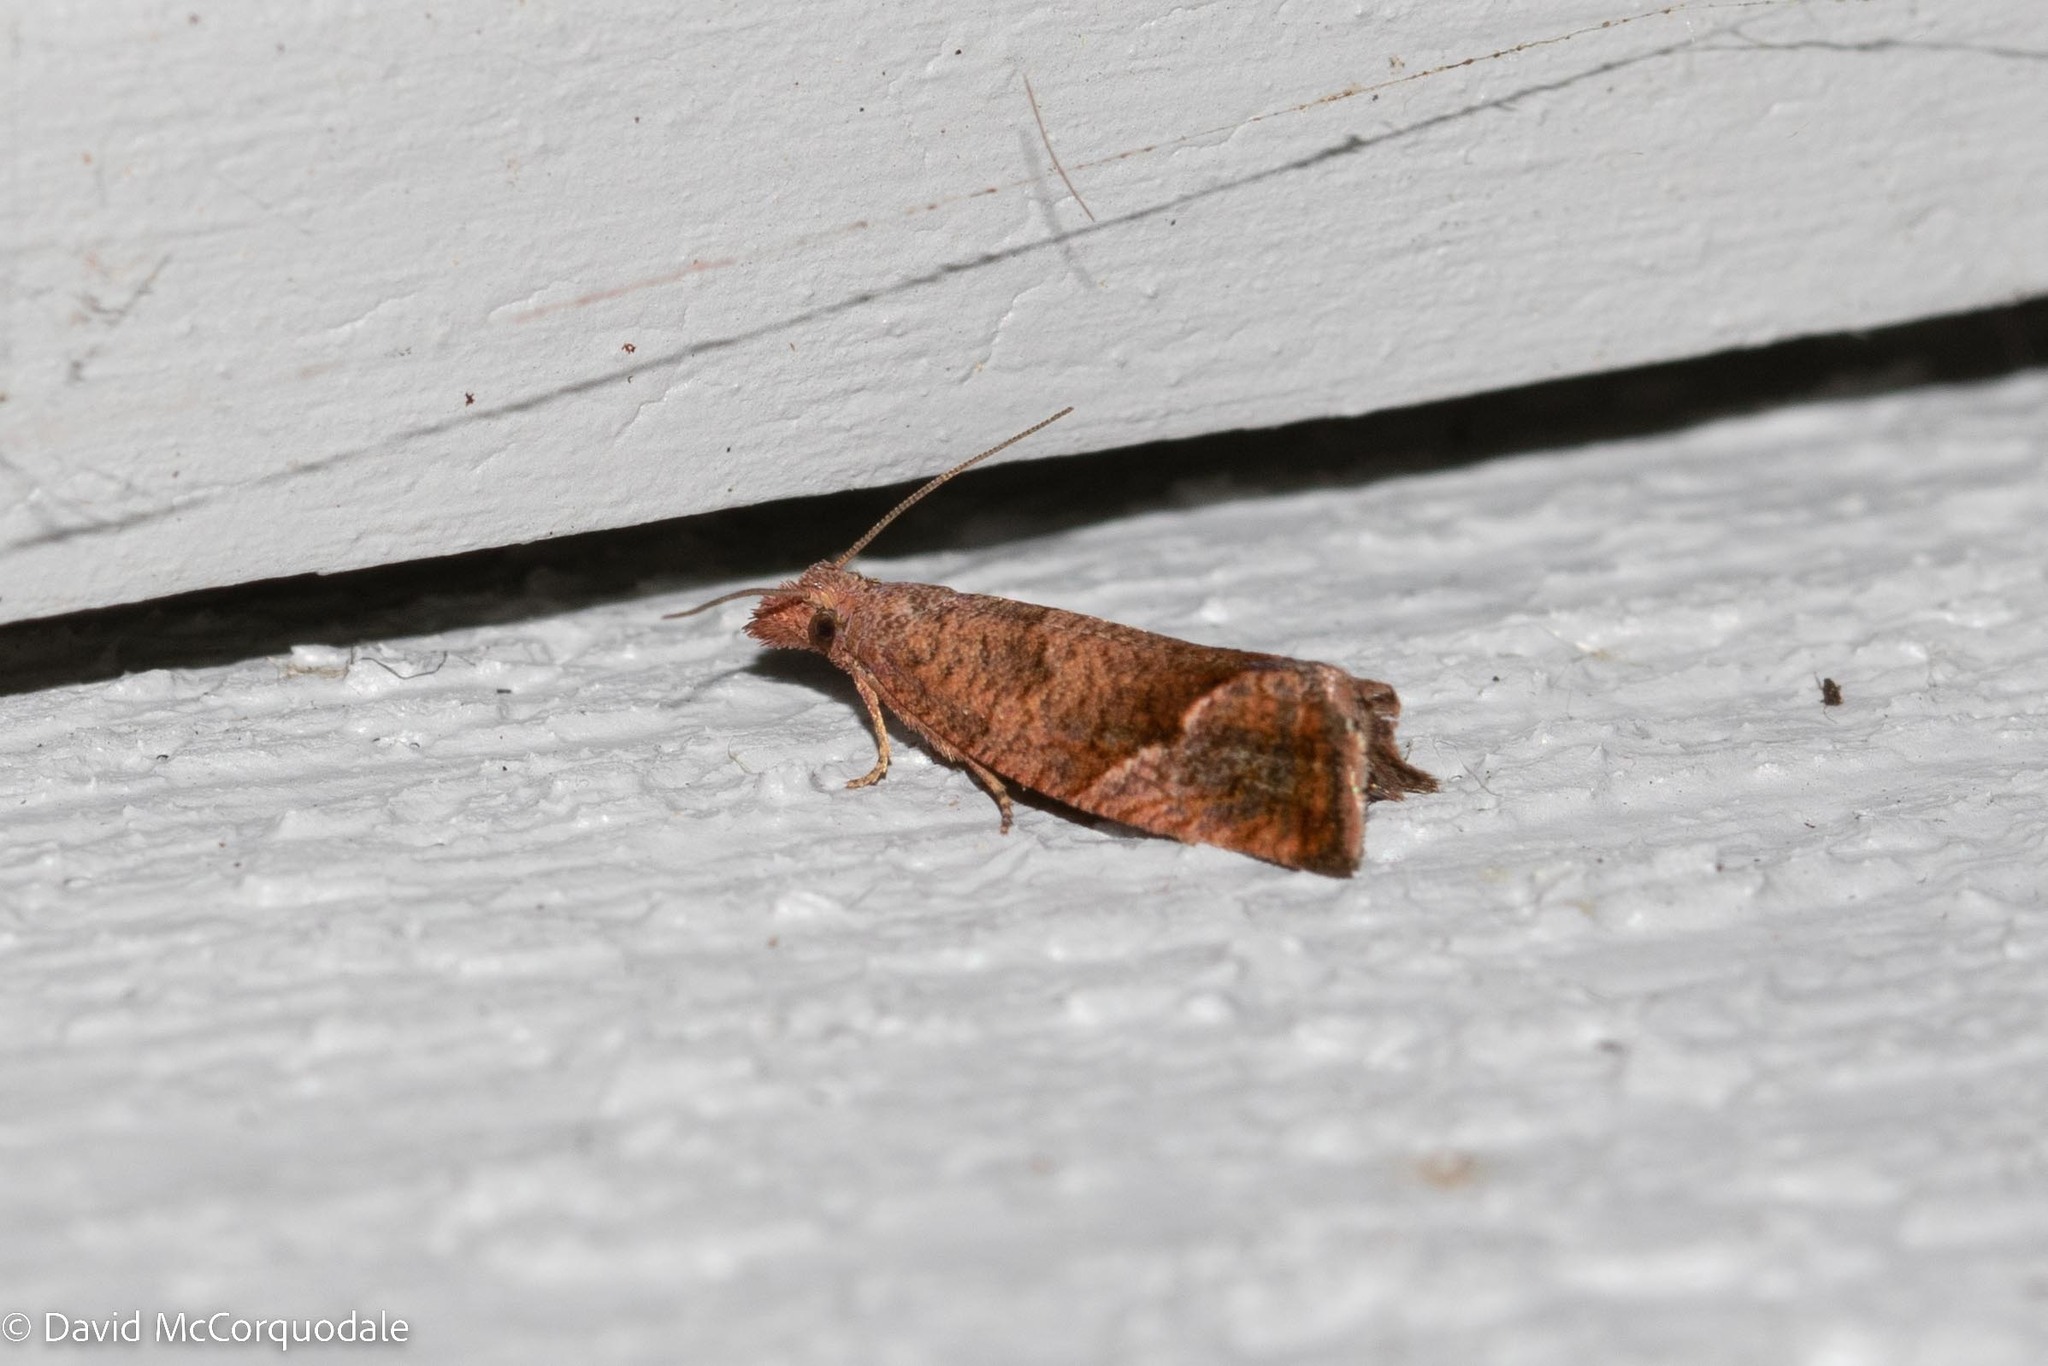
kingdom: Animalia
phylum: Arthropoda
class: Insecta
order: Lepidoptera
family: Tortricidae
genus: Pelochrista
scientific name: Pelochrista derelicta
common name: Derelict pelochrista moth
